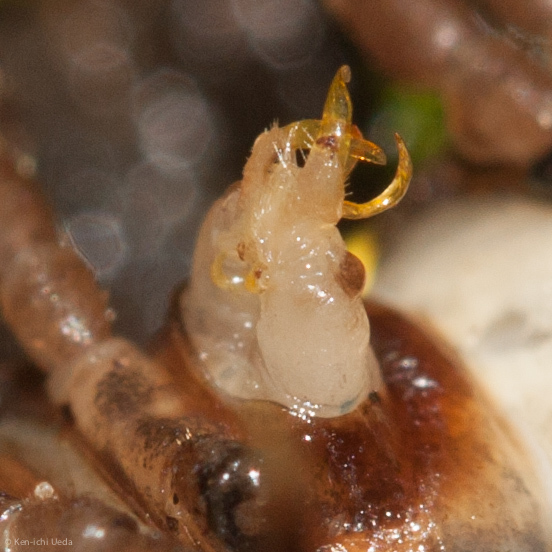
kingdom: Animalia
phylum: Arthropoda
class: Diplopoda
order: Polydesmida
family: Xystodesmidae
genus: Harpaphe
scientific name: Harpaphe haydeniana
